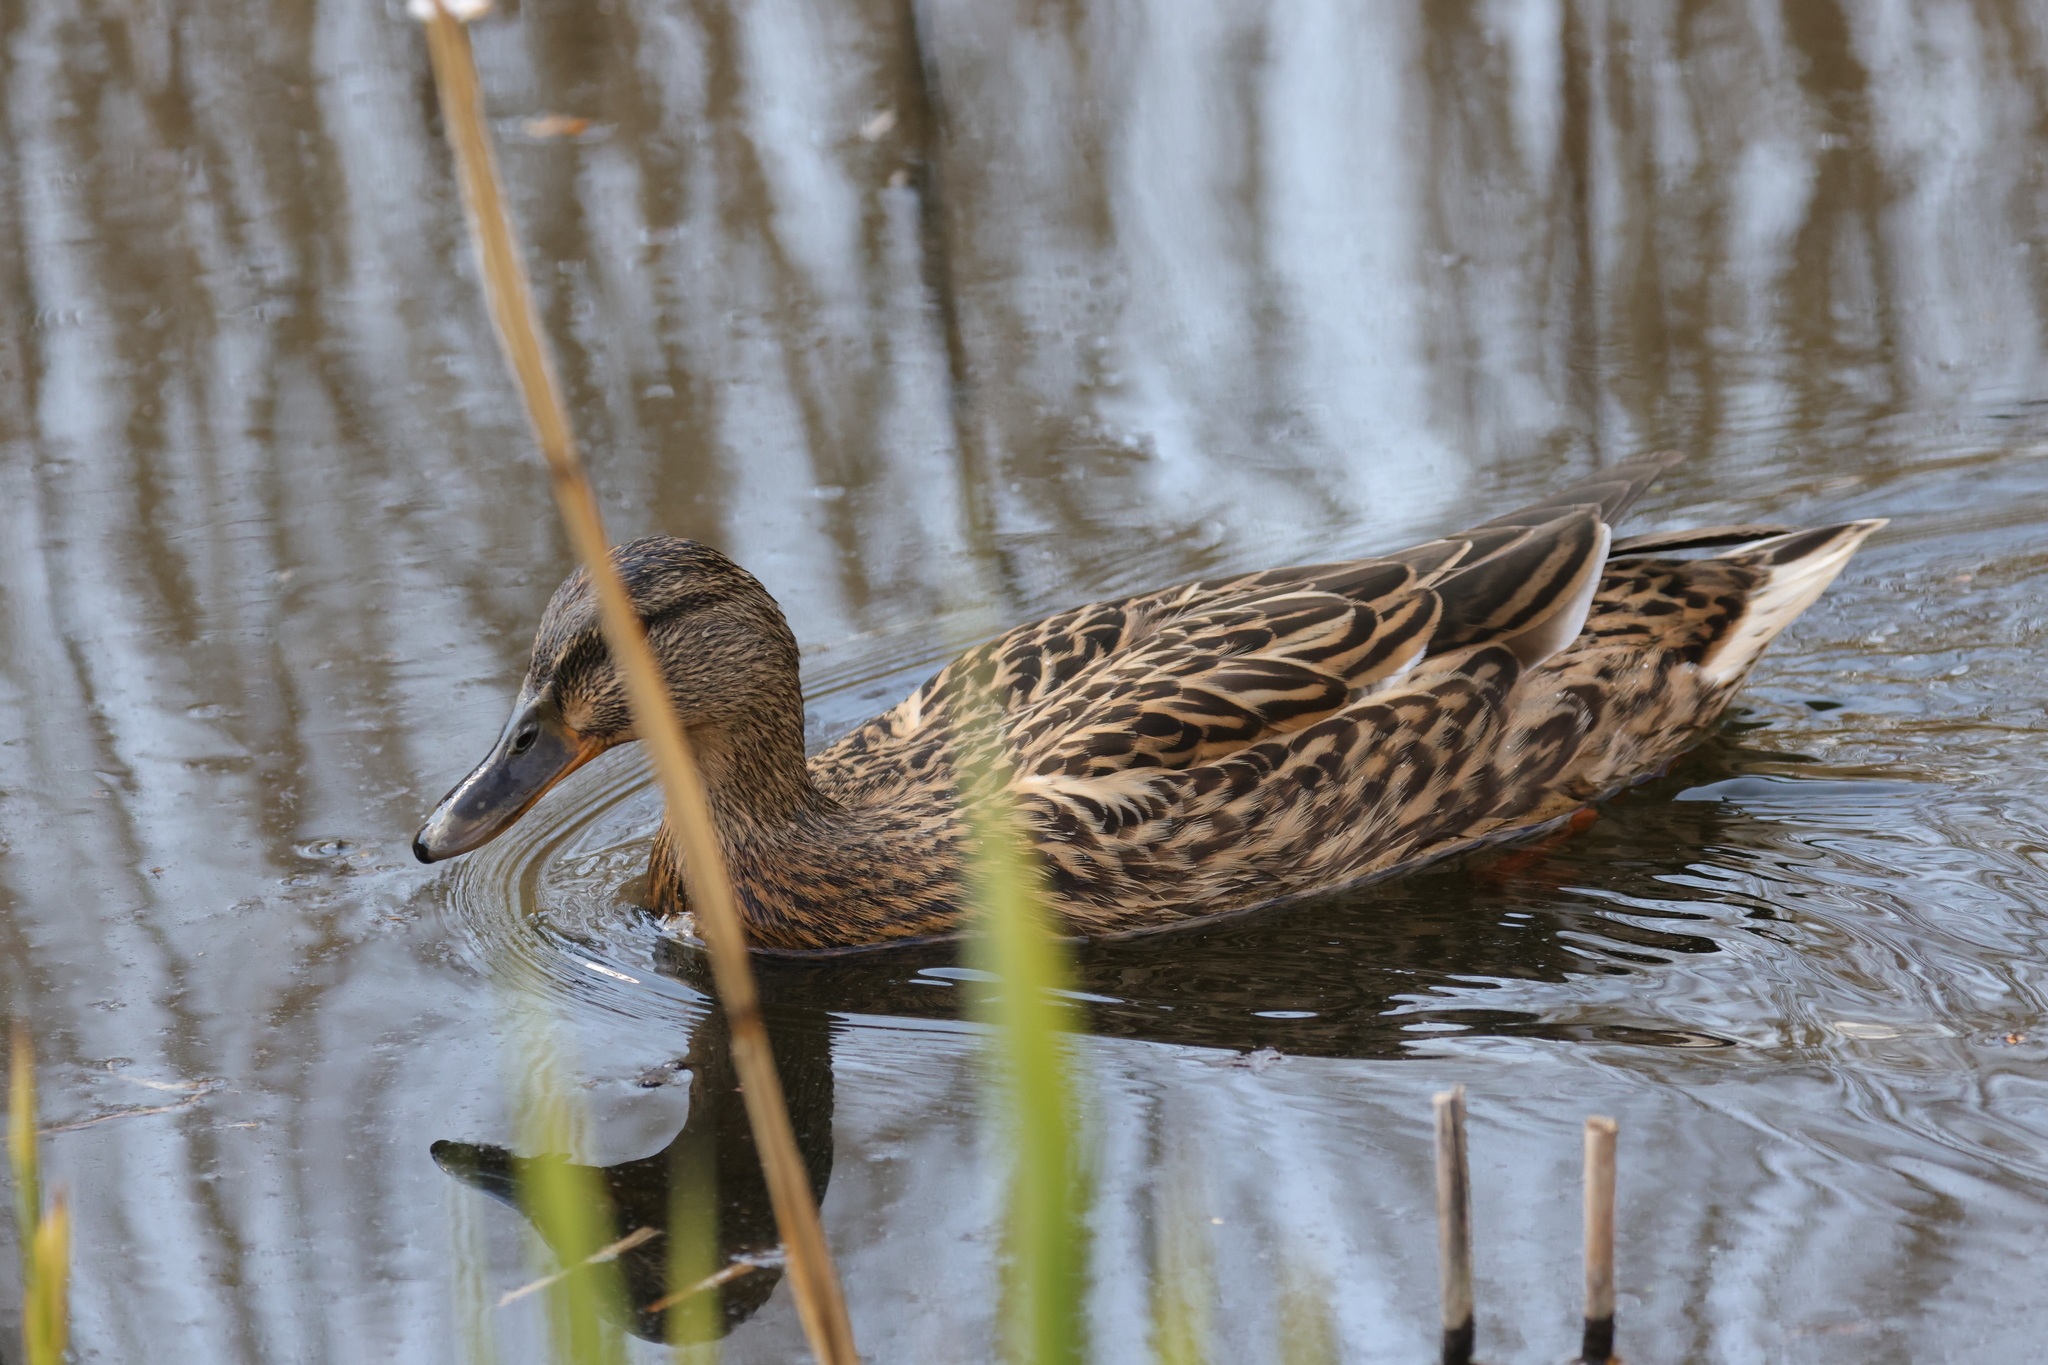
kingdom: Animalia
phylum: Chordata
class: Aves
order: Anseriformes
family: Anatidae
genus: Anas
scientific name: Anas platyrhynchos
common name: Mallard
